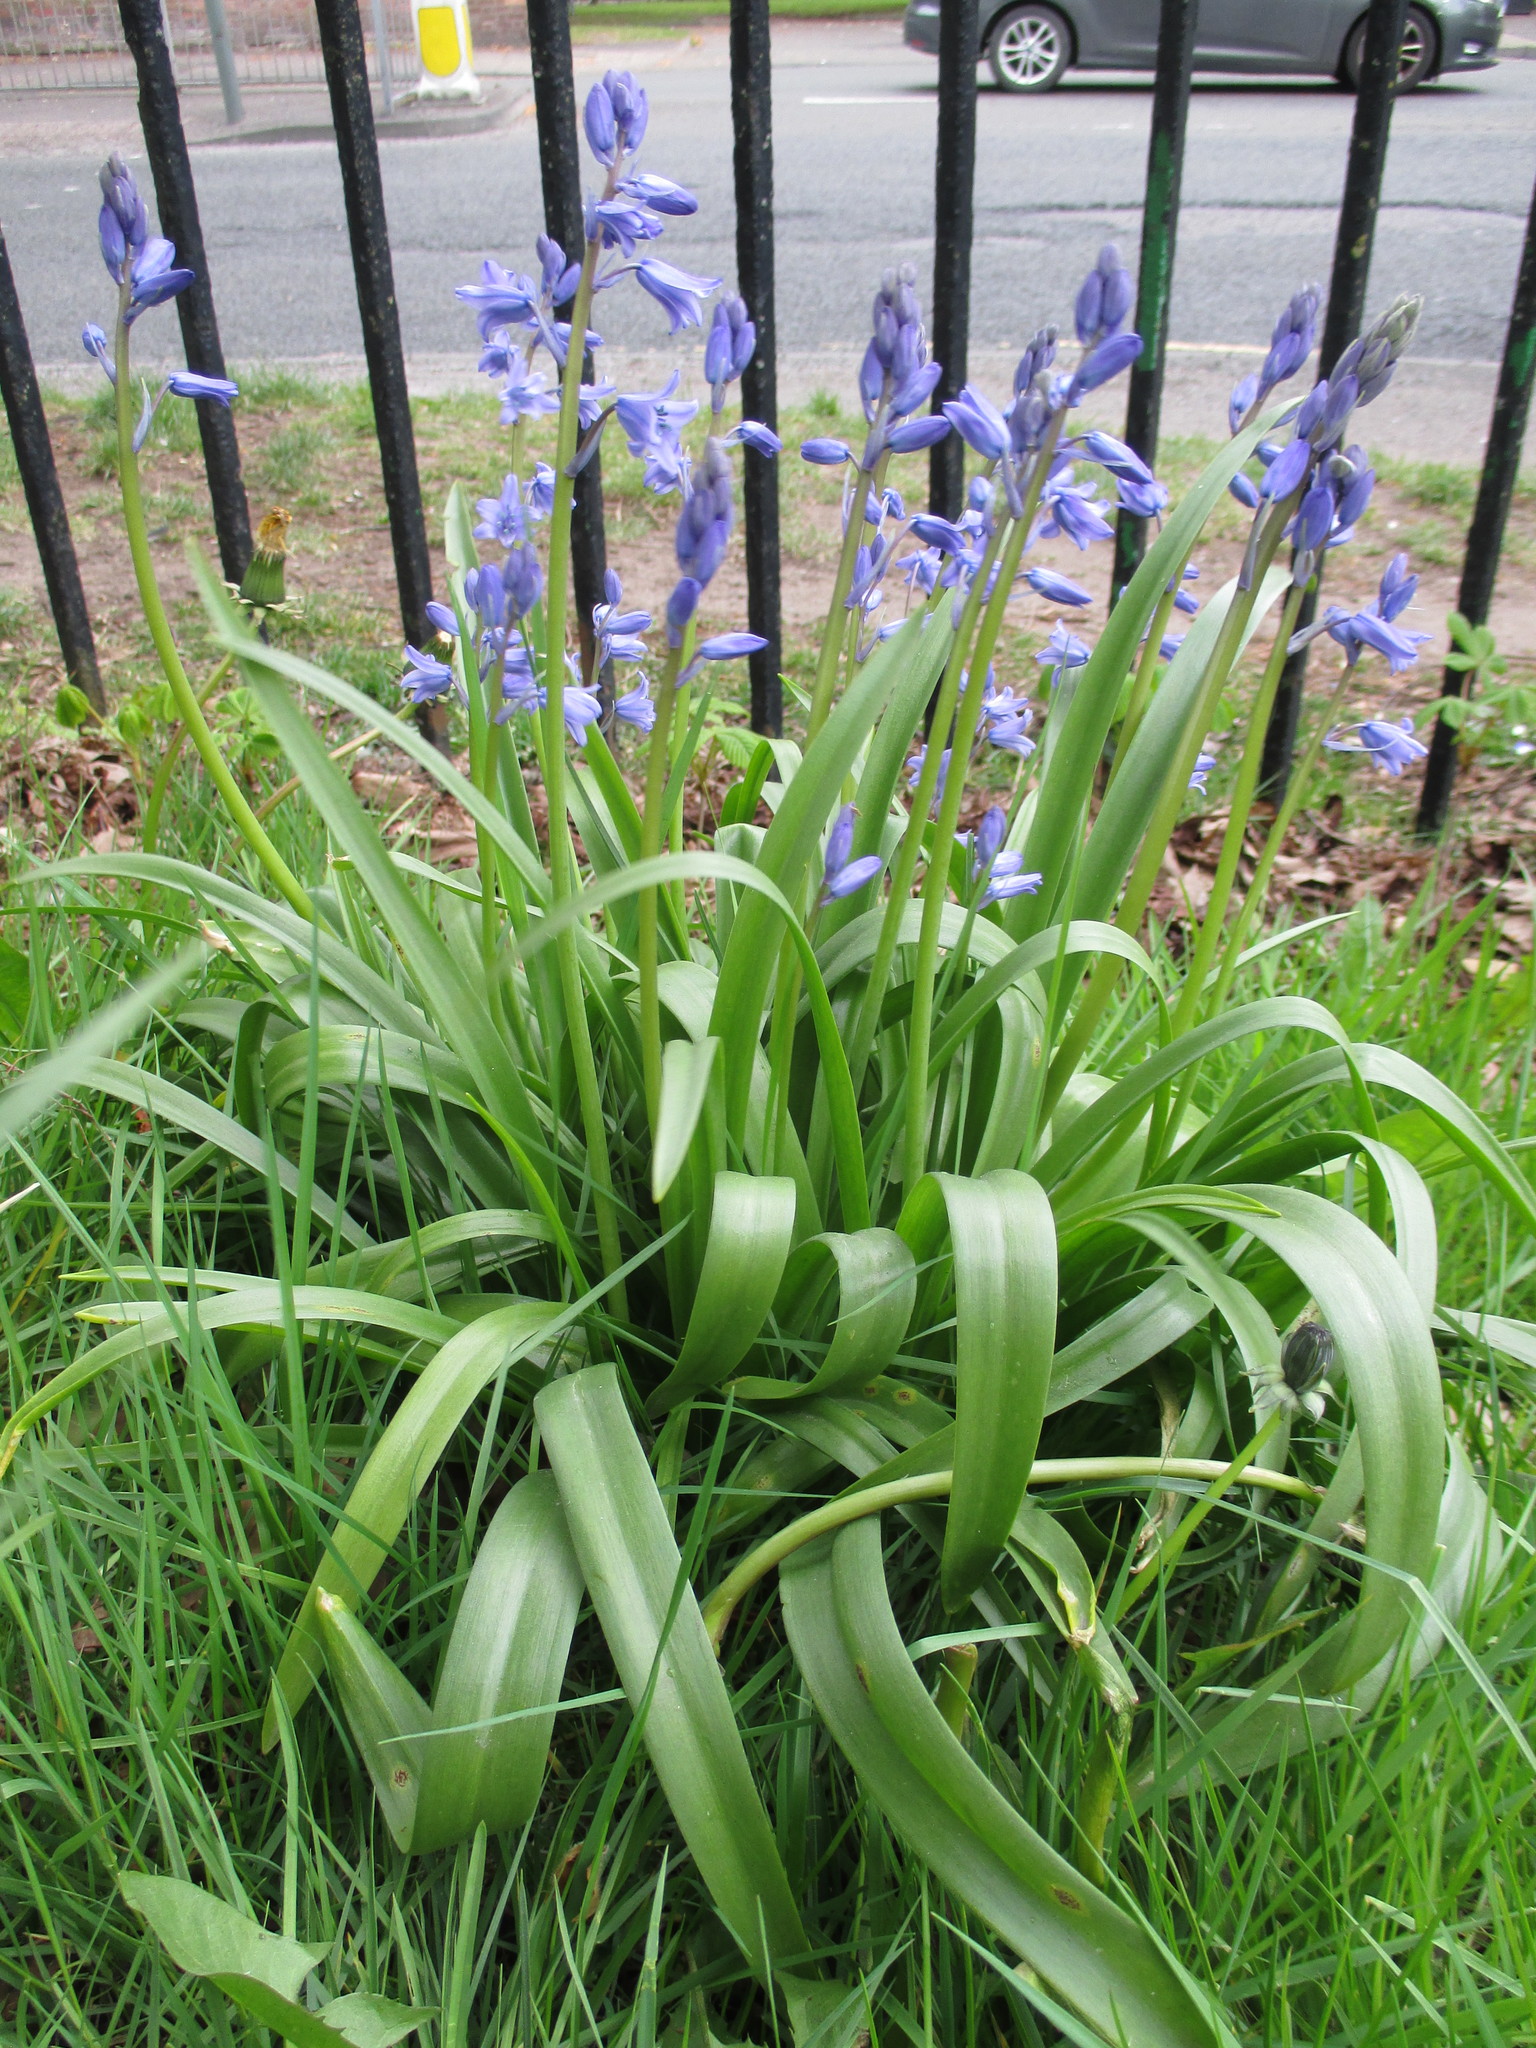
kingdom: Plantae
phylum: Tracheophyta
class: Liliopsida
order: Asparagales
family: Asparagaceae
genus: Hyacinthoides
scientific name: Hyacinthoides massartiana
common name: Hyacinthoides
